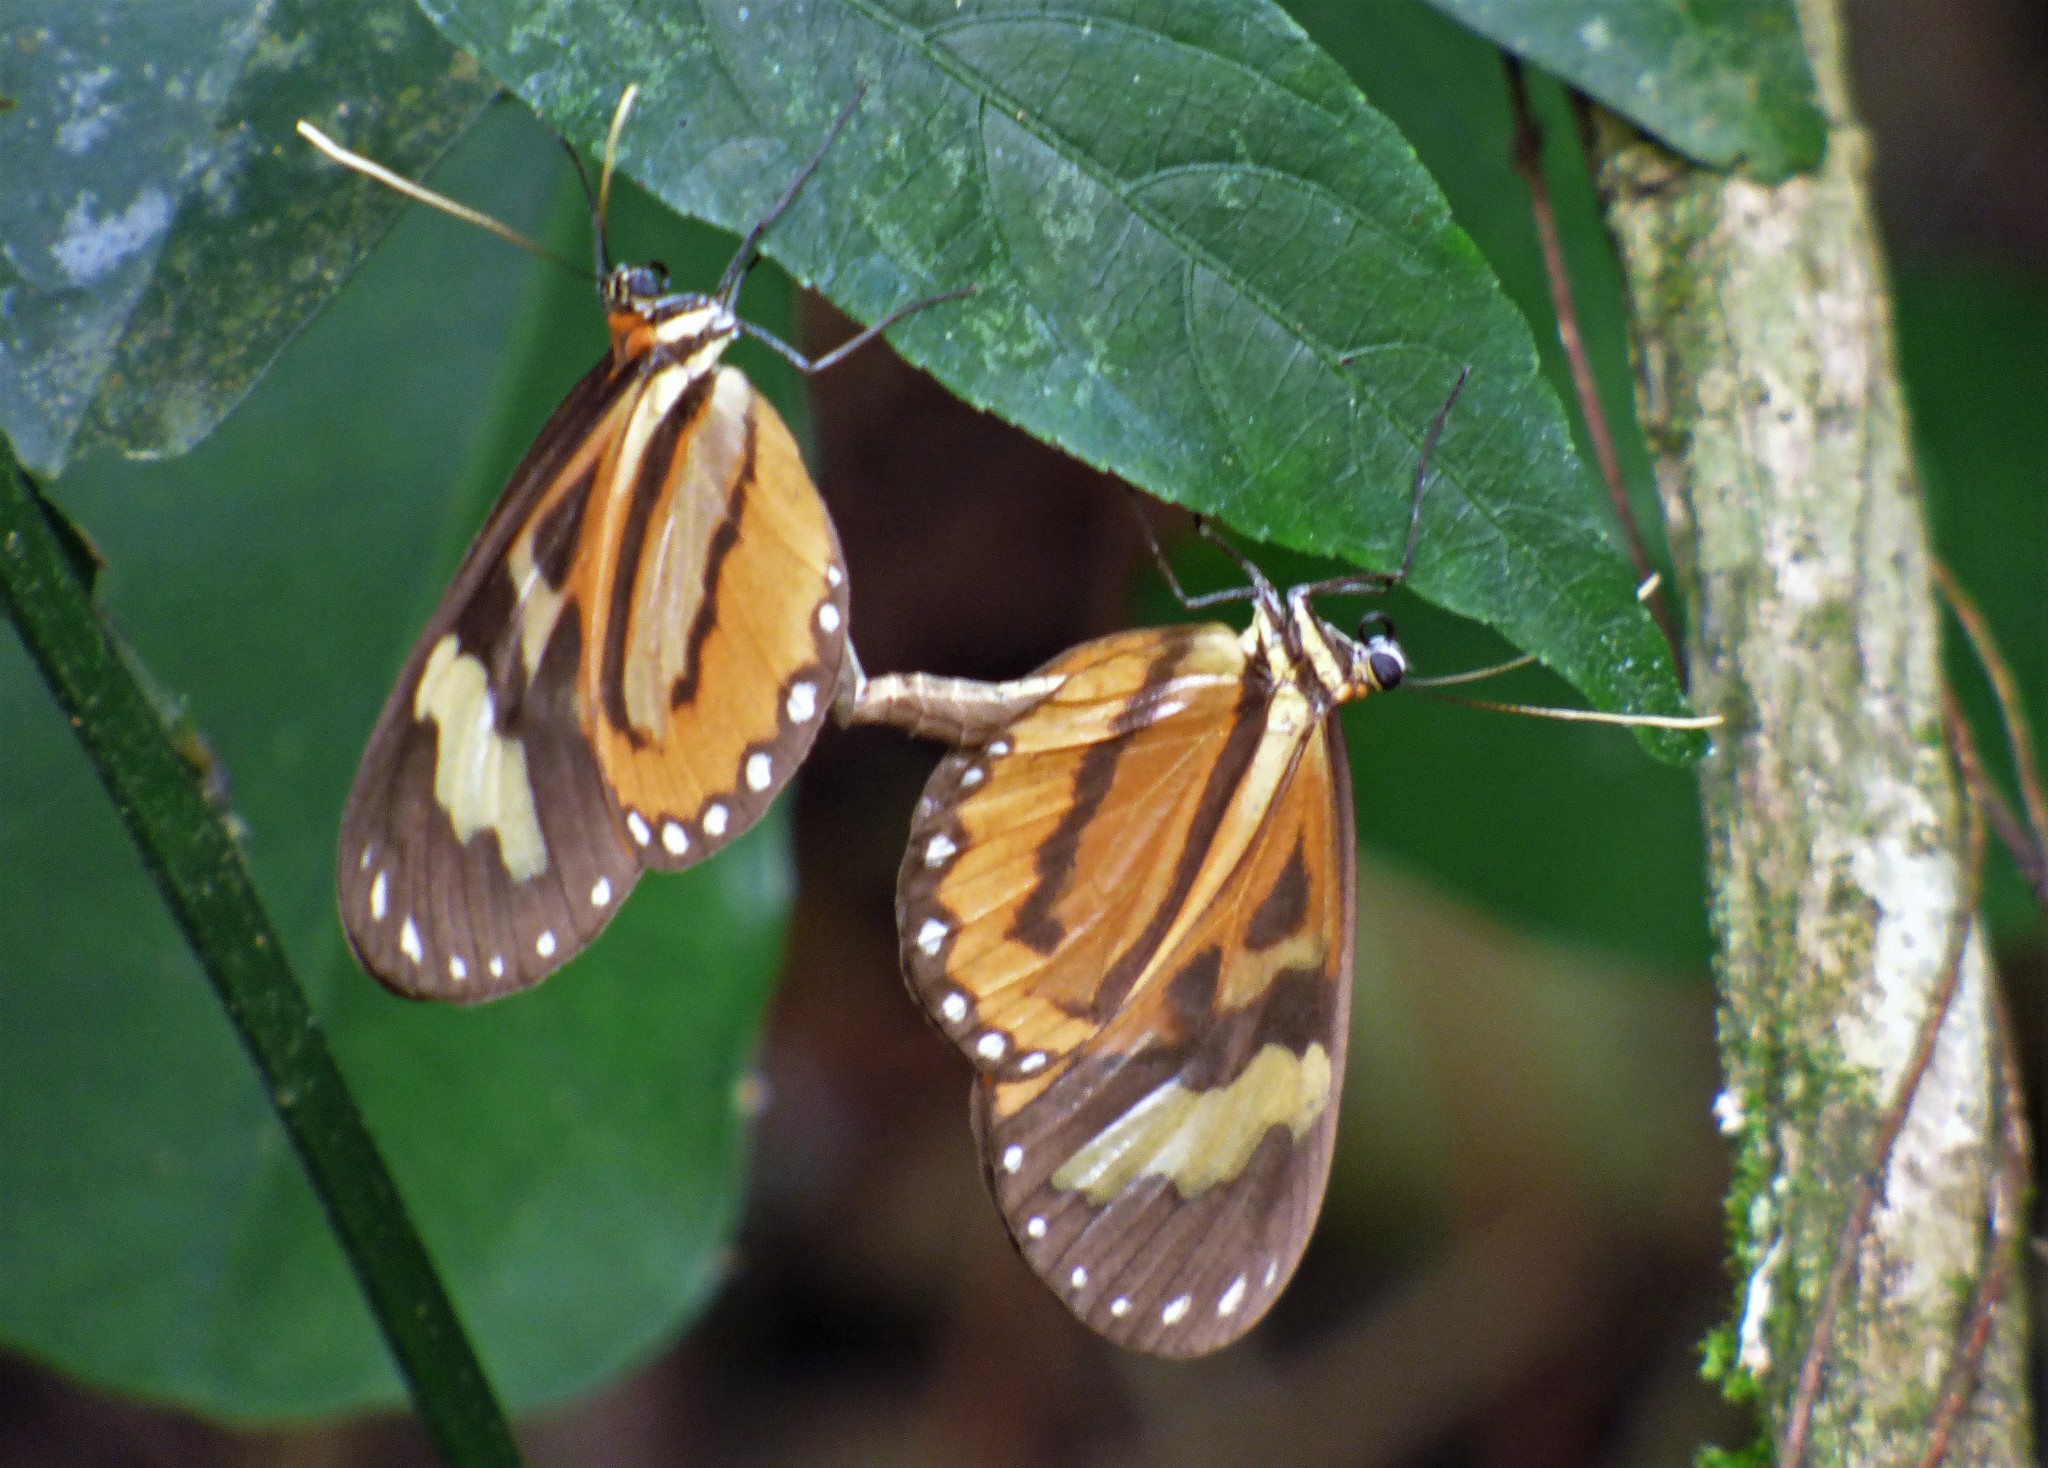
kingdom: Animalia
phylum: Arthropoda
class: Insecta
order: Lepidoptera
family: Nymphalidae
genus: Hypothyris
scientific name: Hypothyris euclea
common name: Euclea tigerwing
